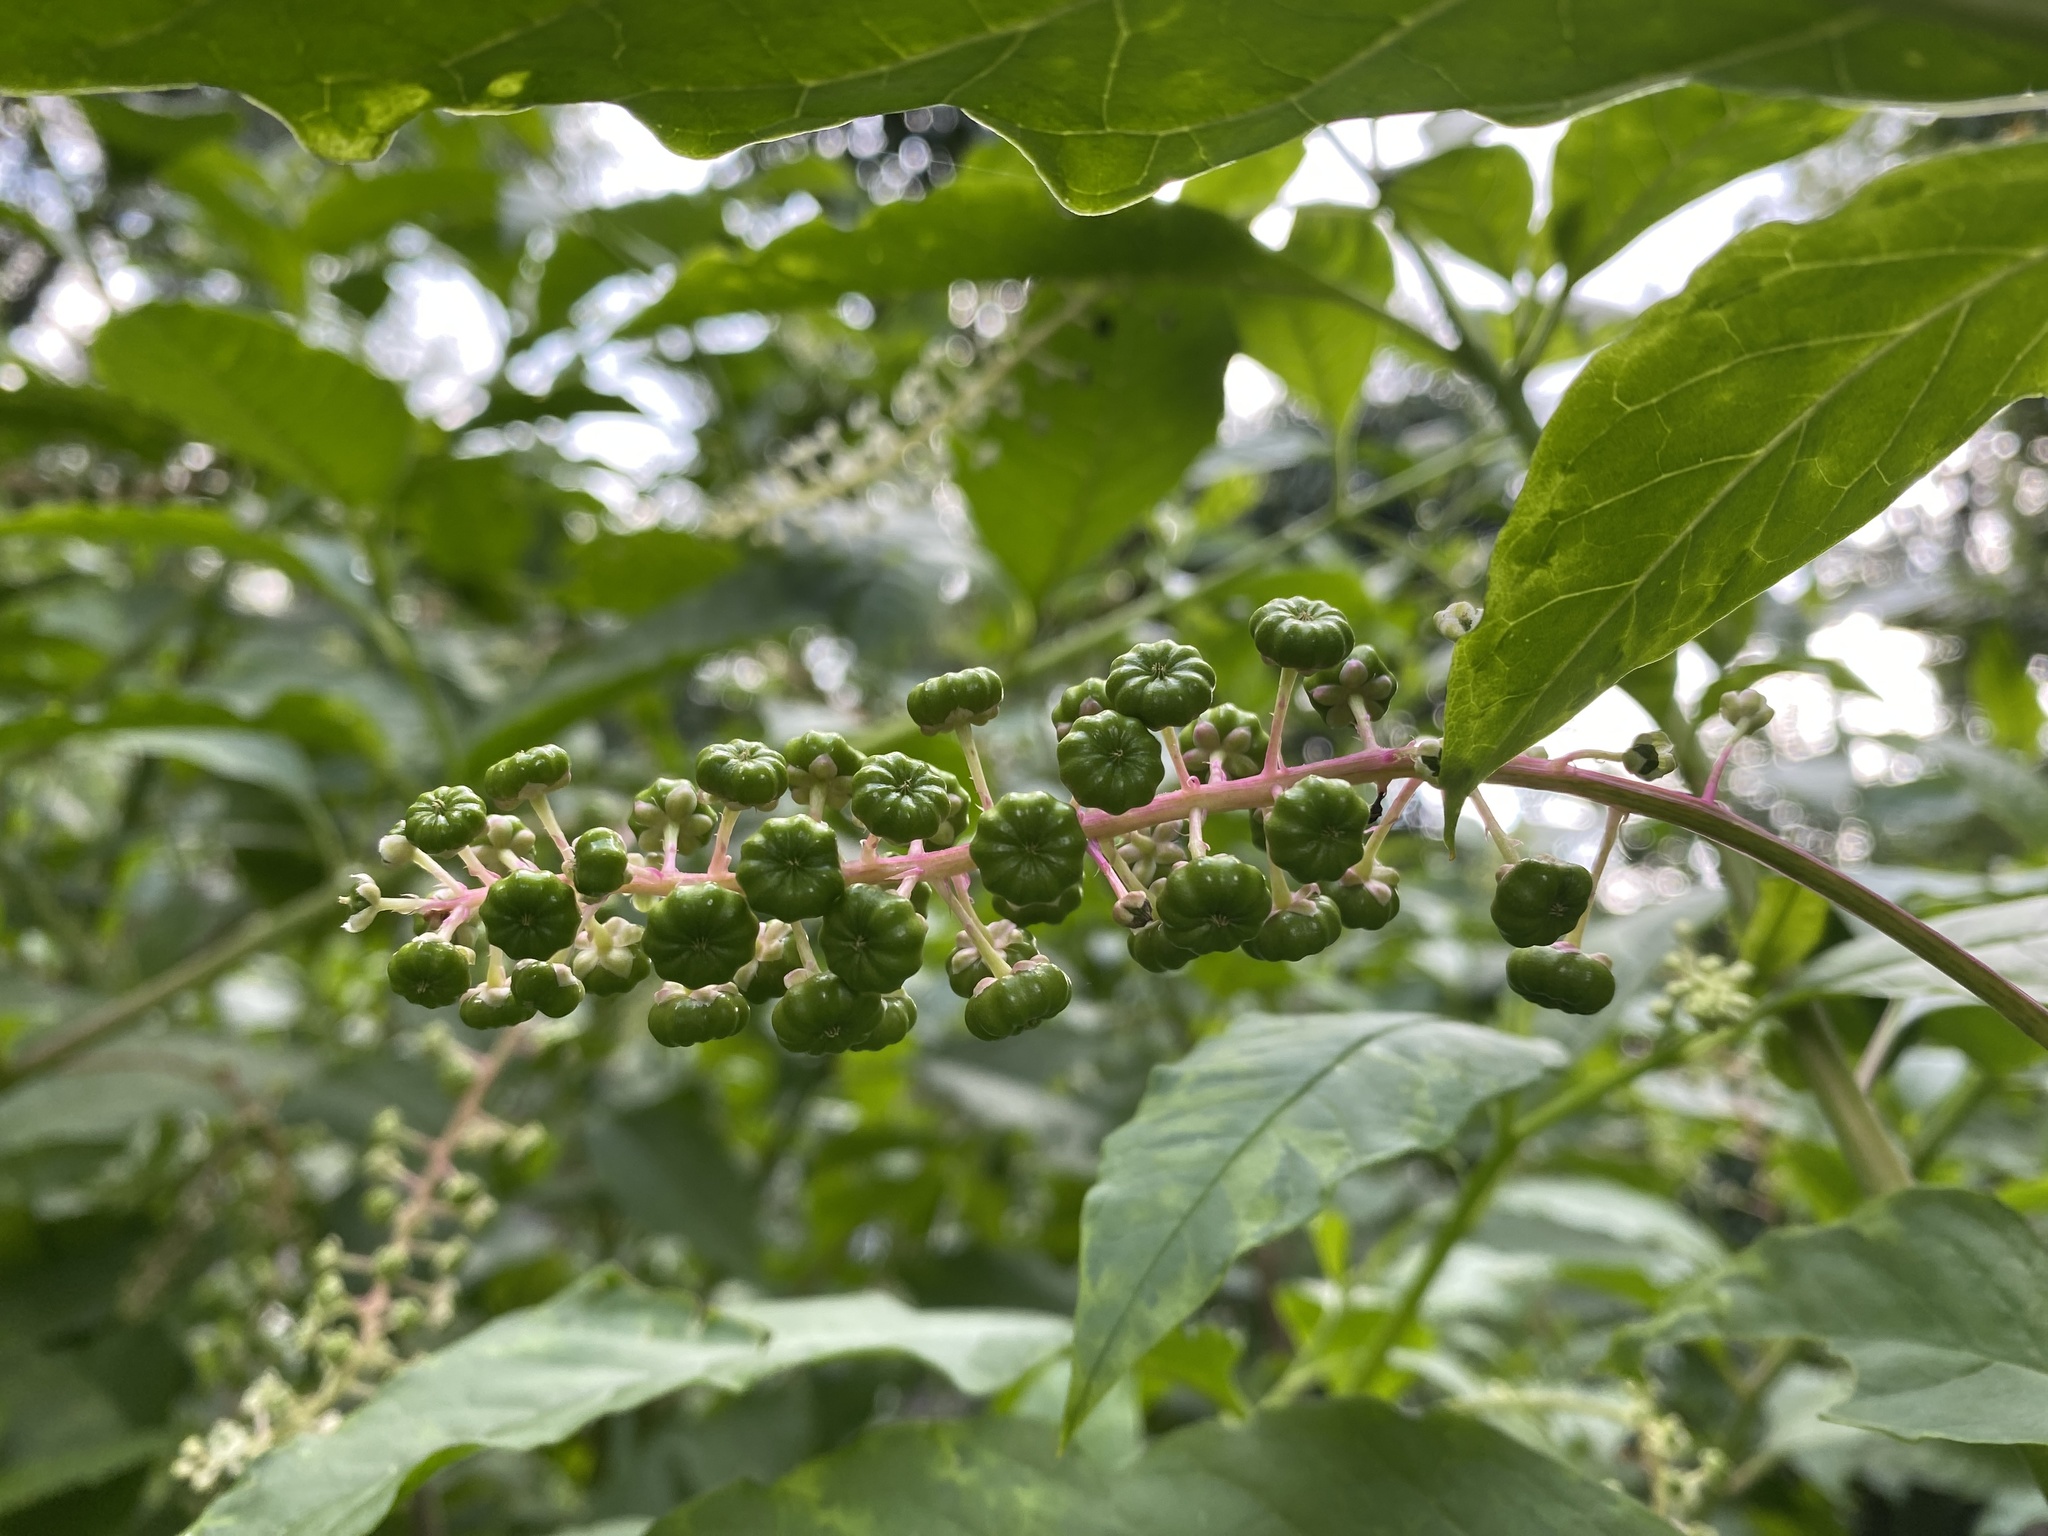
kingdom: Plantae
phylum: Tracheophyta
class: Magnoliopsida
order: Caryophyllales
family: Phytolaccaceae
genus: Phytolacca
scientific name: Phytolacca americana
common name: American pokeweed
